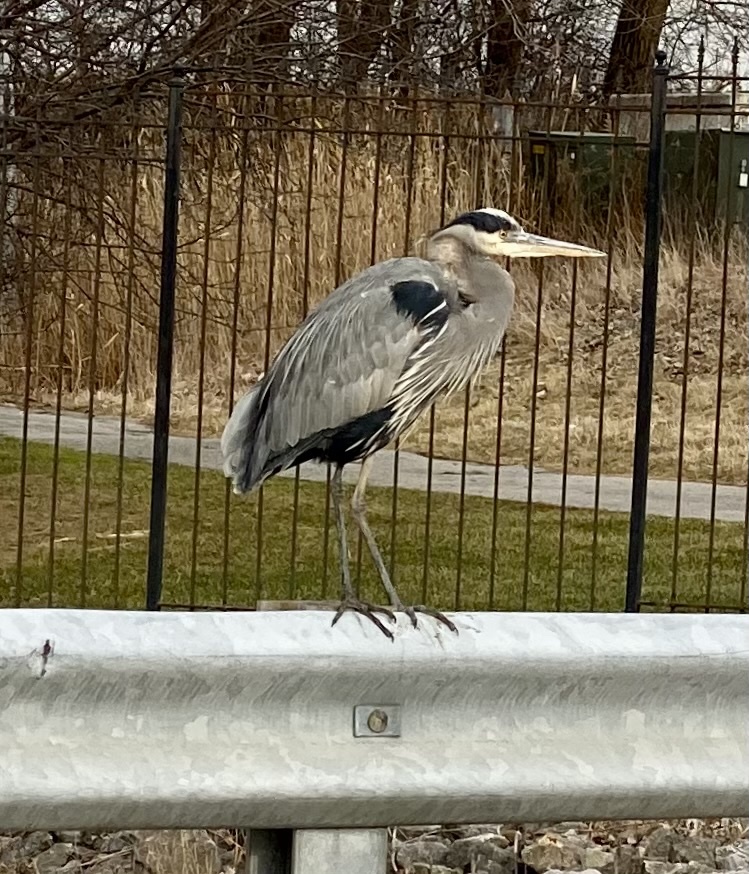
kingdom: Animalia
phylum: Chordata
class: Aves
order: Pelecaniformes
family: Ardeidae
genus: Ardea
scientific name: Ardea herodias
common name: Great blue heron
